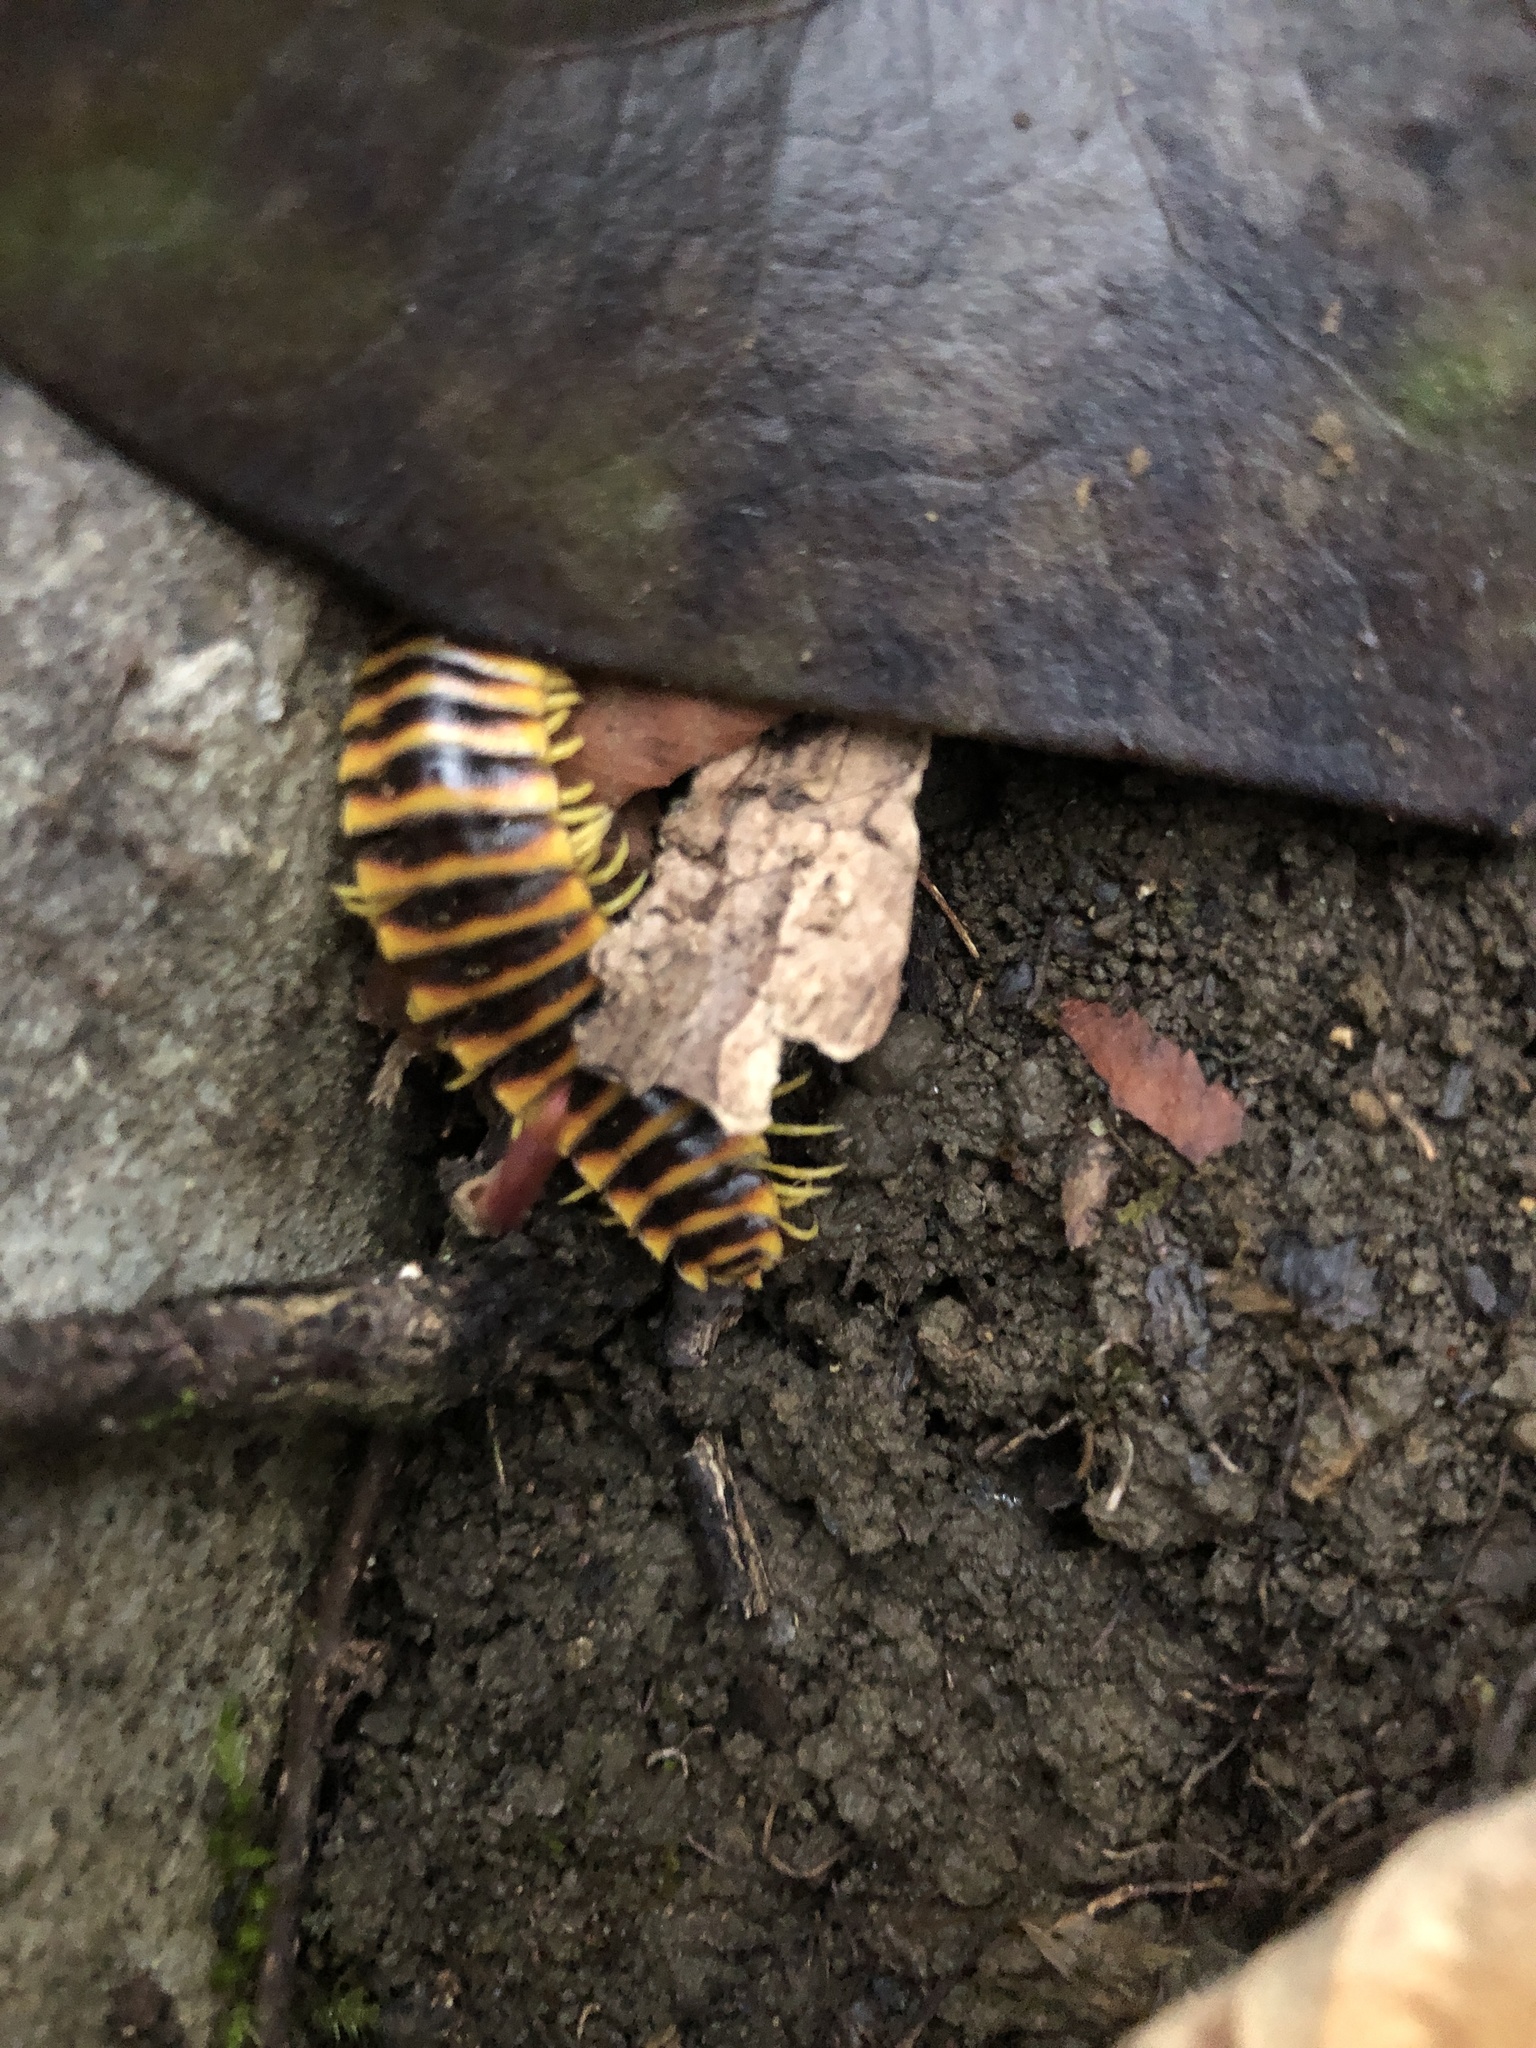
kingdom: Animalia
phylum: Arthropoda
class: Diplopoda
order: Polydesmida
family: Xystodesmidae
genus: Apheloria
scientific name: Apheloria virginiensis
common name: Black-and-gold flat millipede
